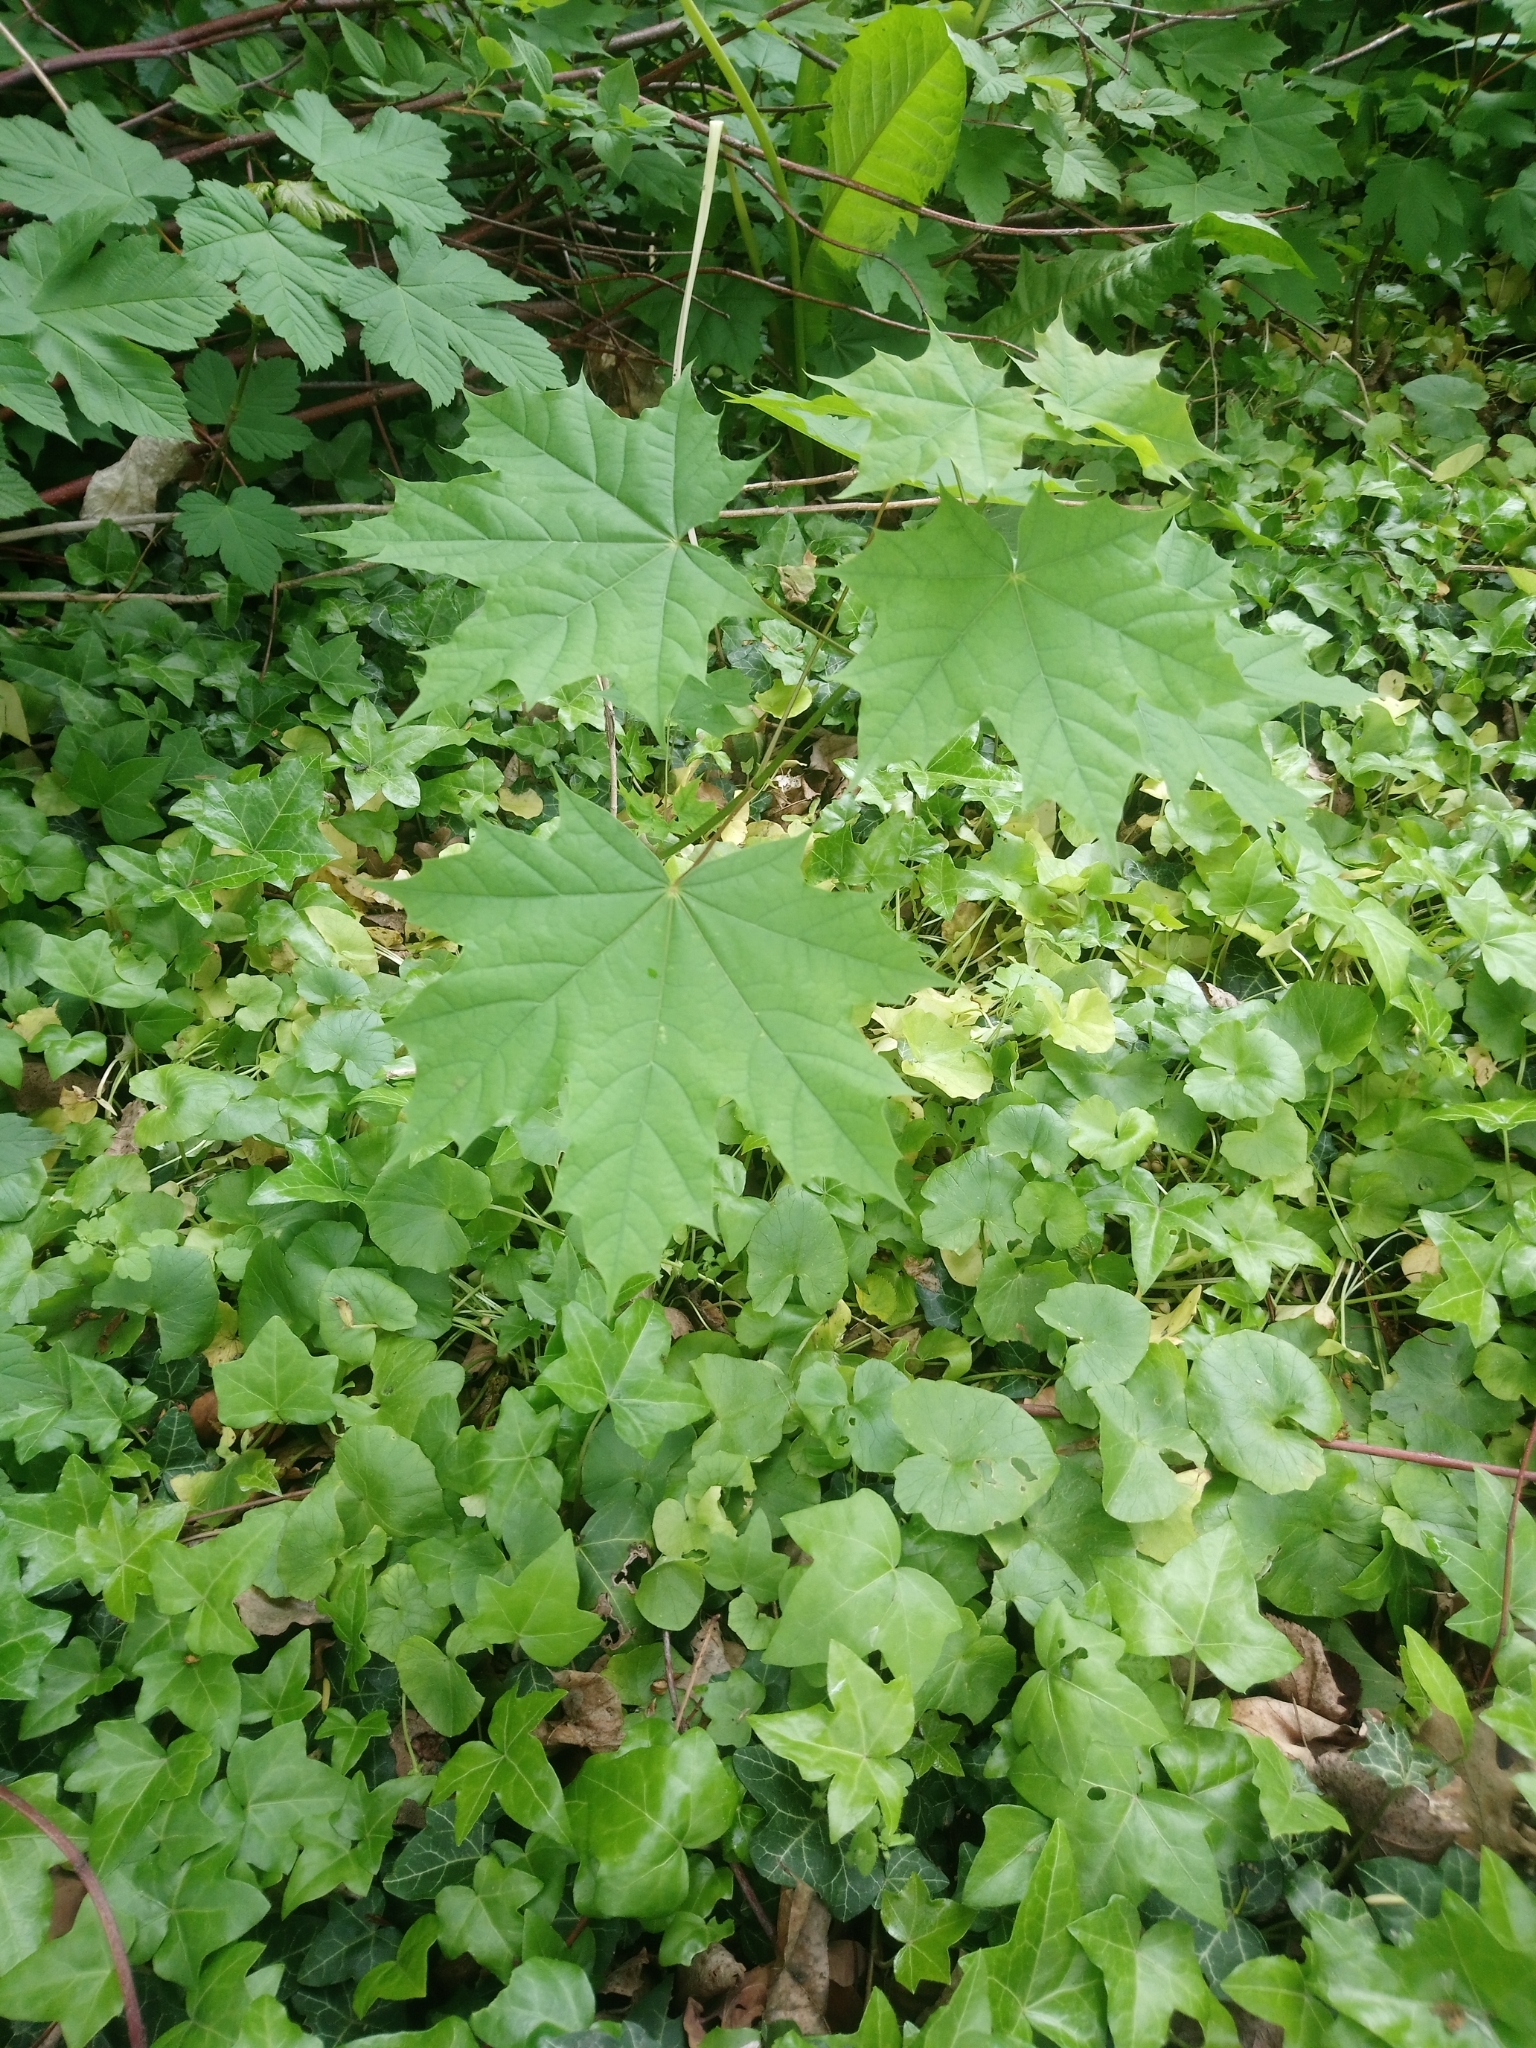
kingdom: Plantae
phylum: Tracheophyta
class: Magnoliopsida
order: Sapindales
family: Sapindaceae
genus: Acer
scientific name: Acer platanoides
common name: Norway maple
